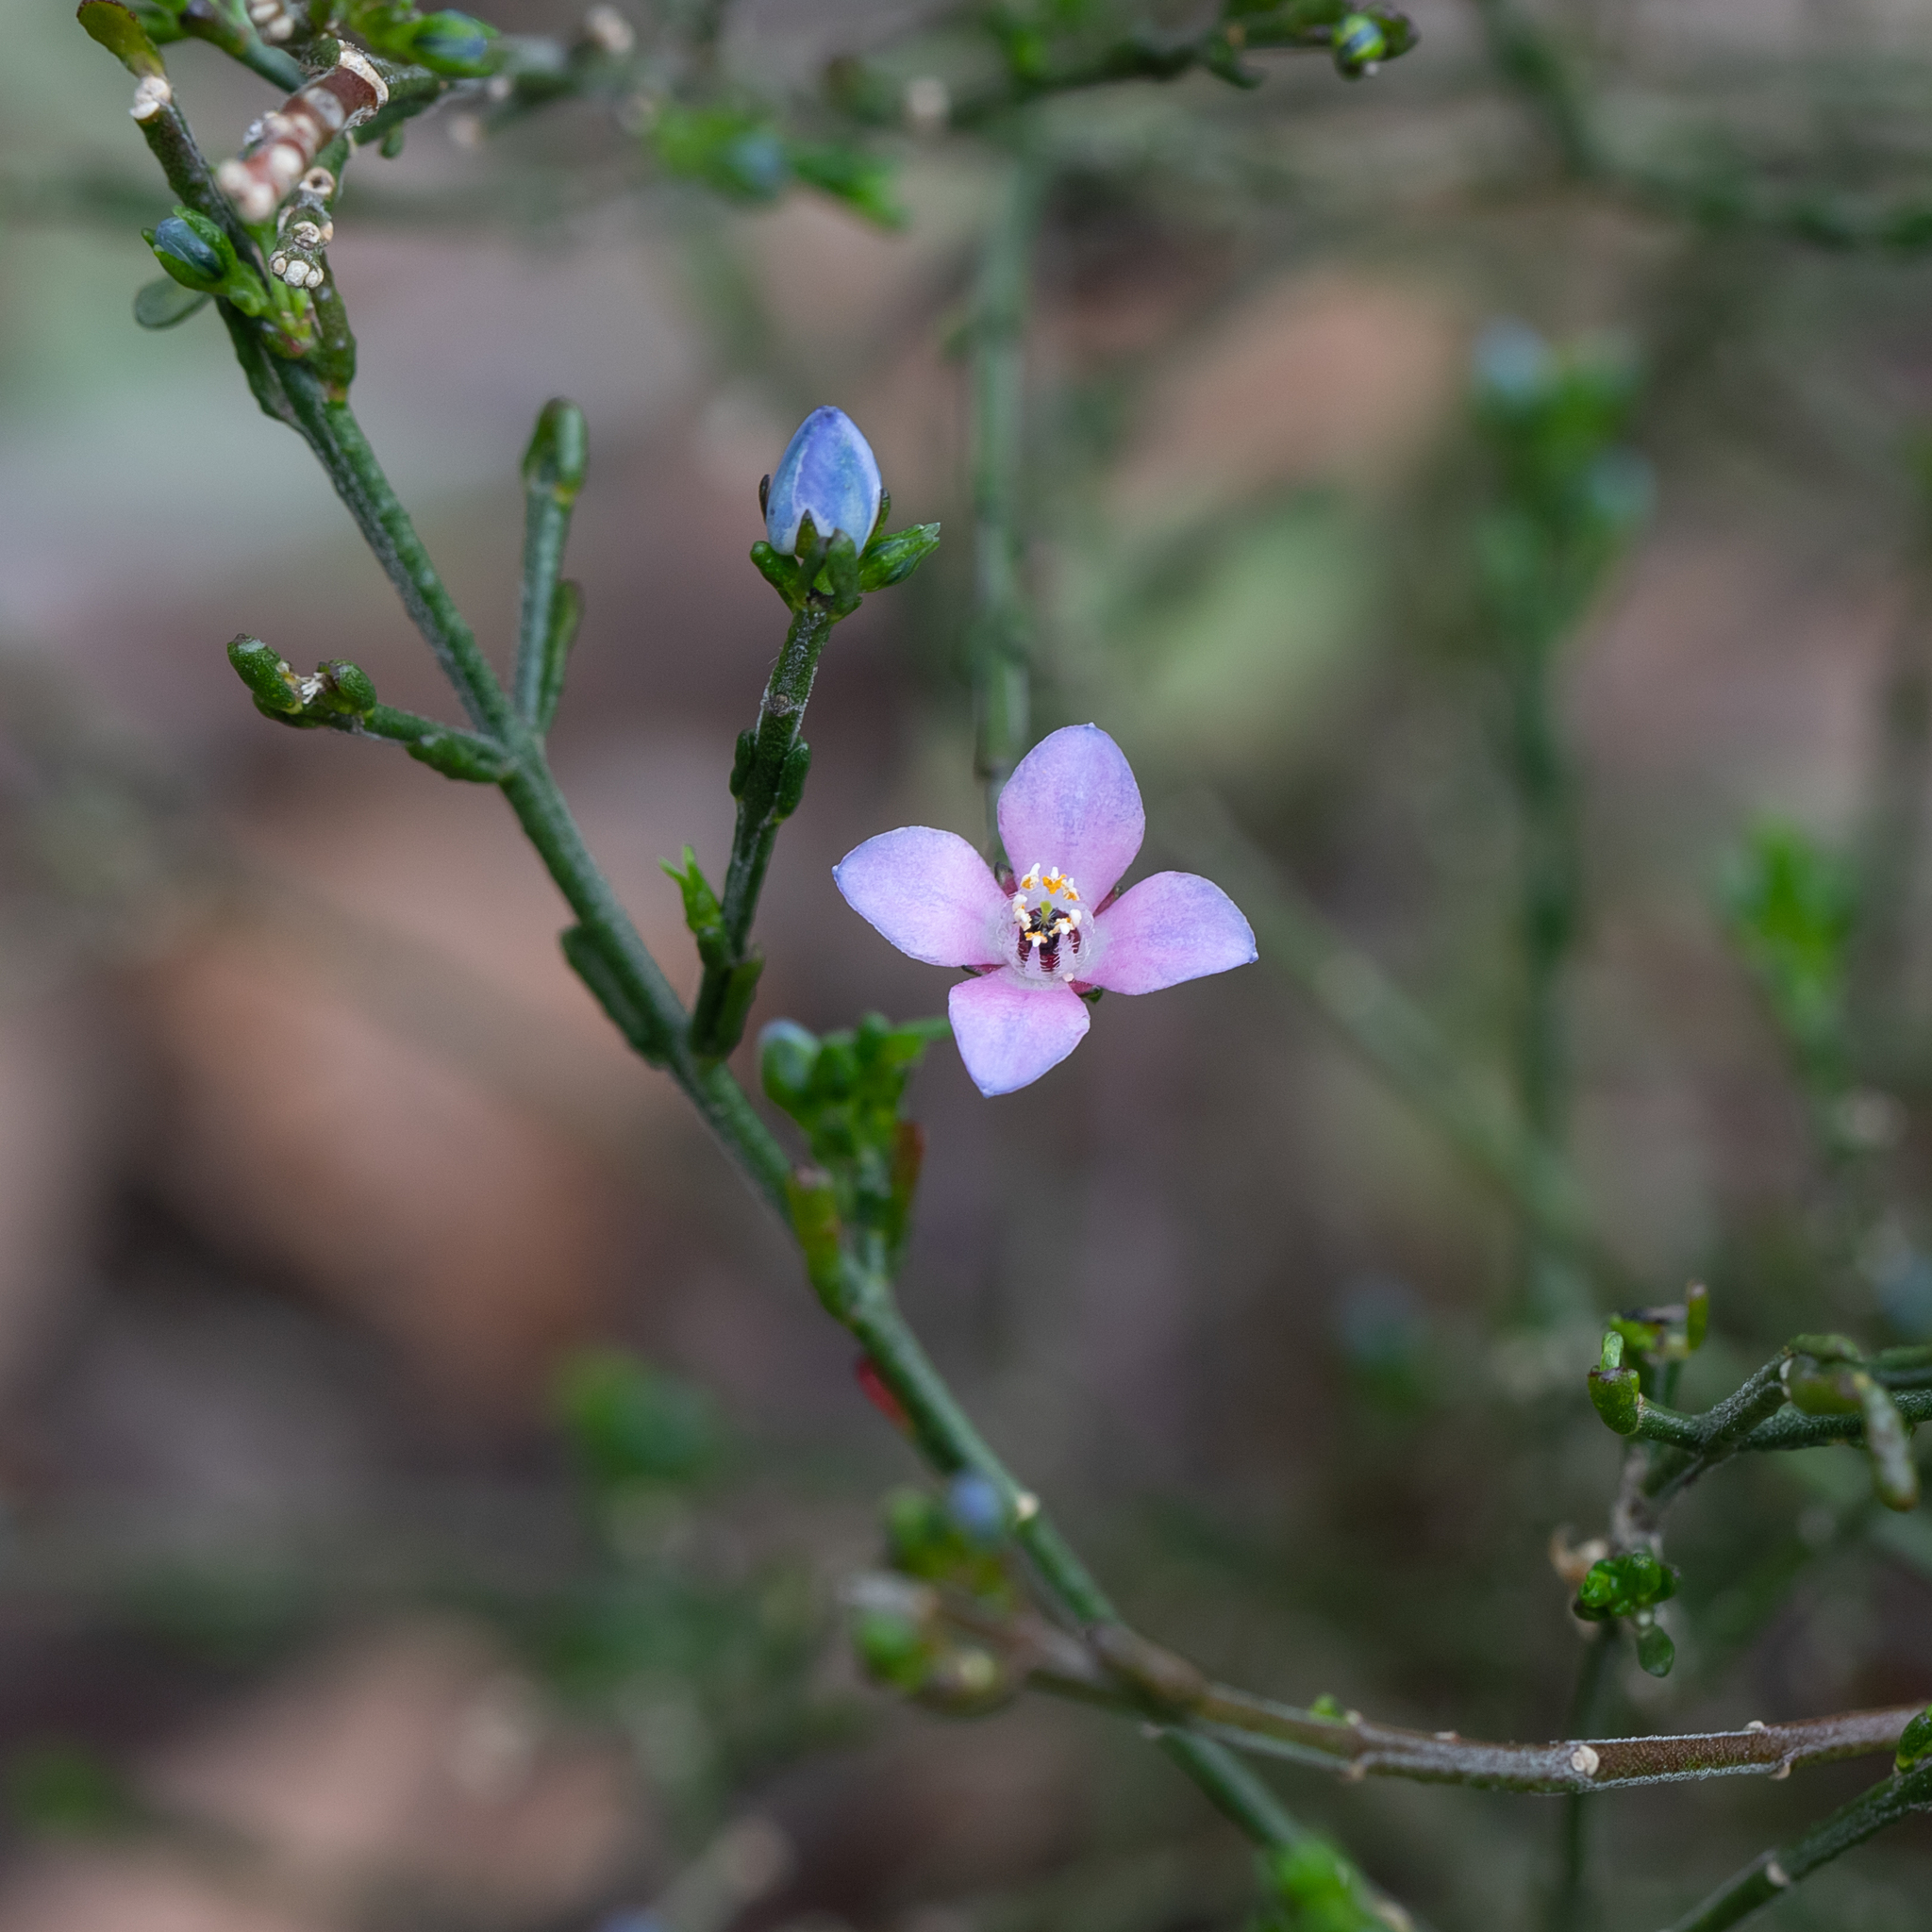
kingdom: Plantae
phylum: Tracheophyta
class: Magnoliopsida
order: Sapindales
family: Rutaceae
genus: Cyanothamnus
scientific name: Cyanothamnus coerulescens
